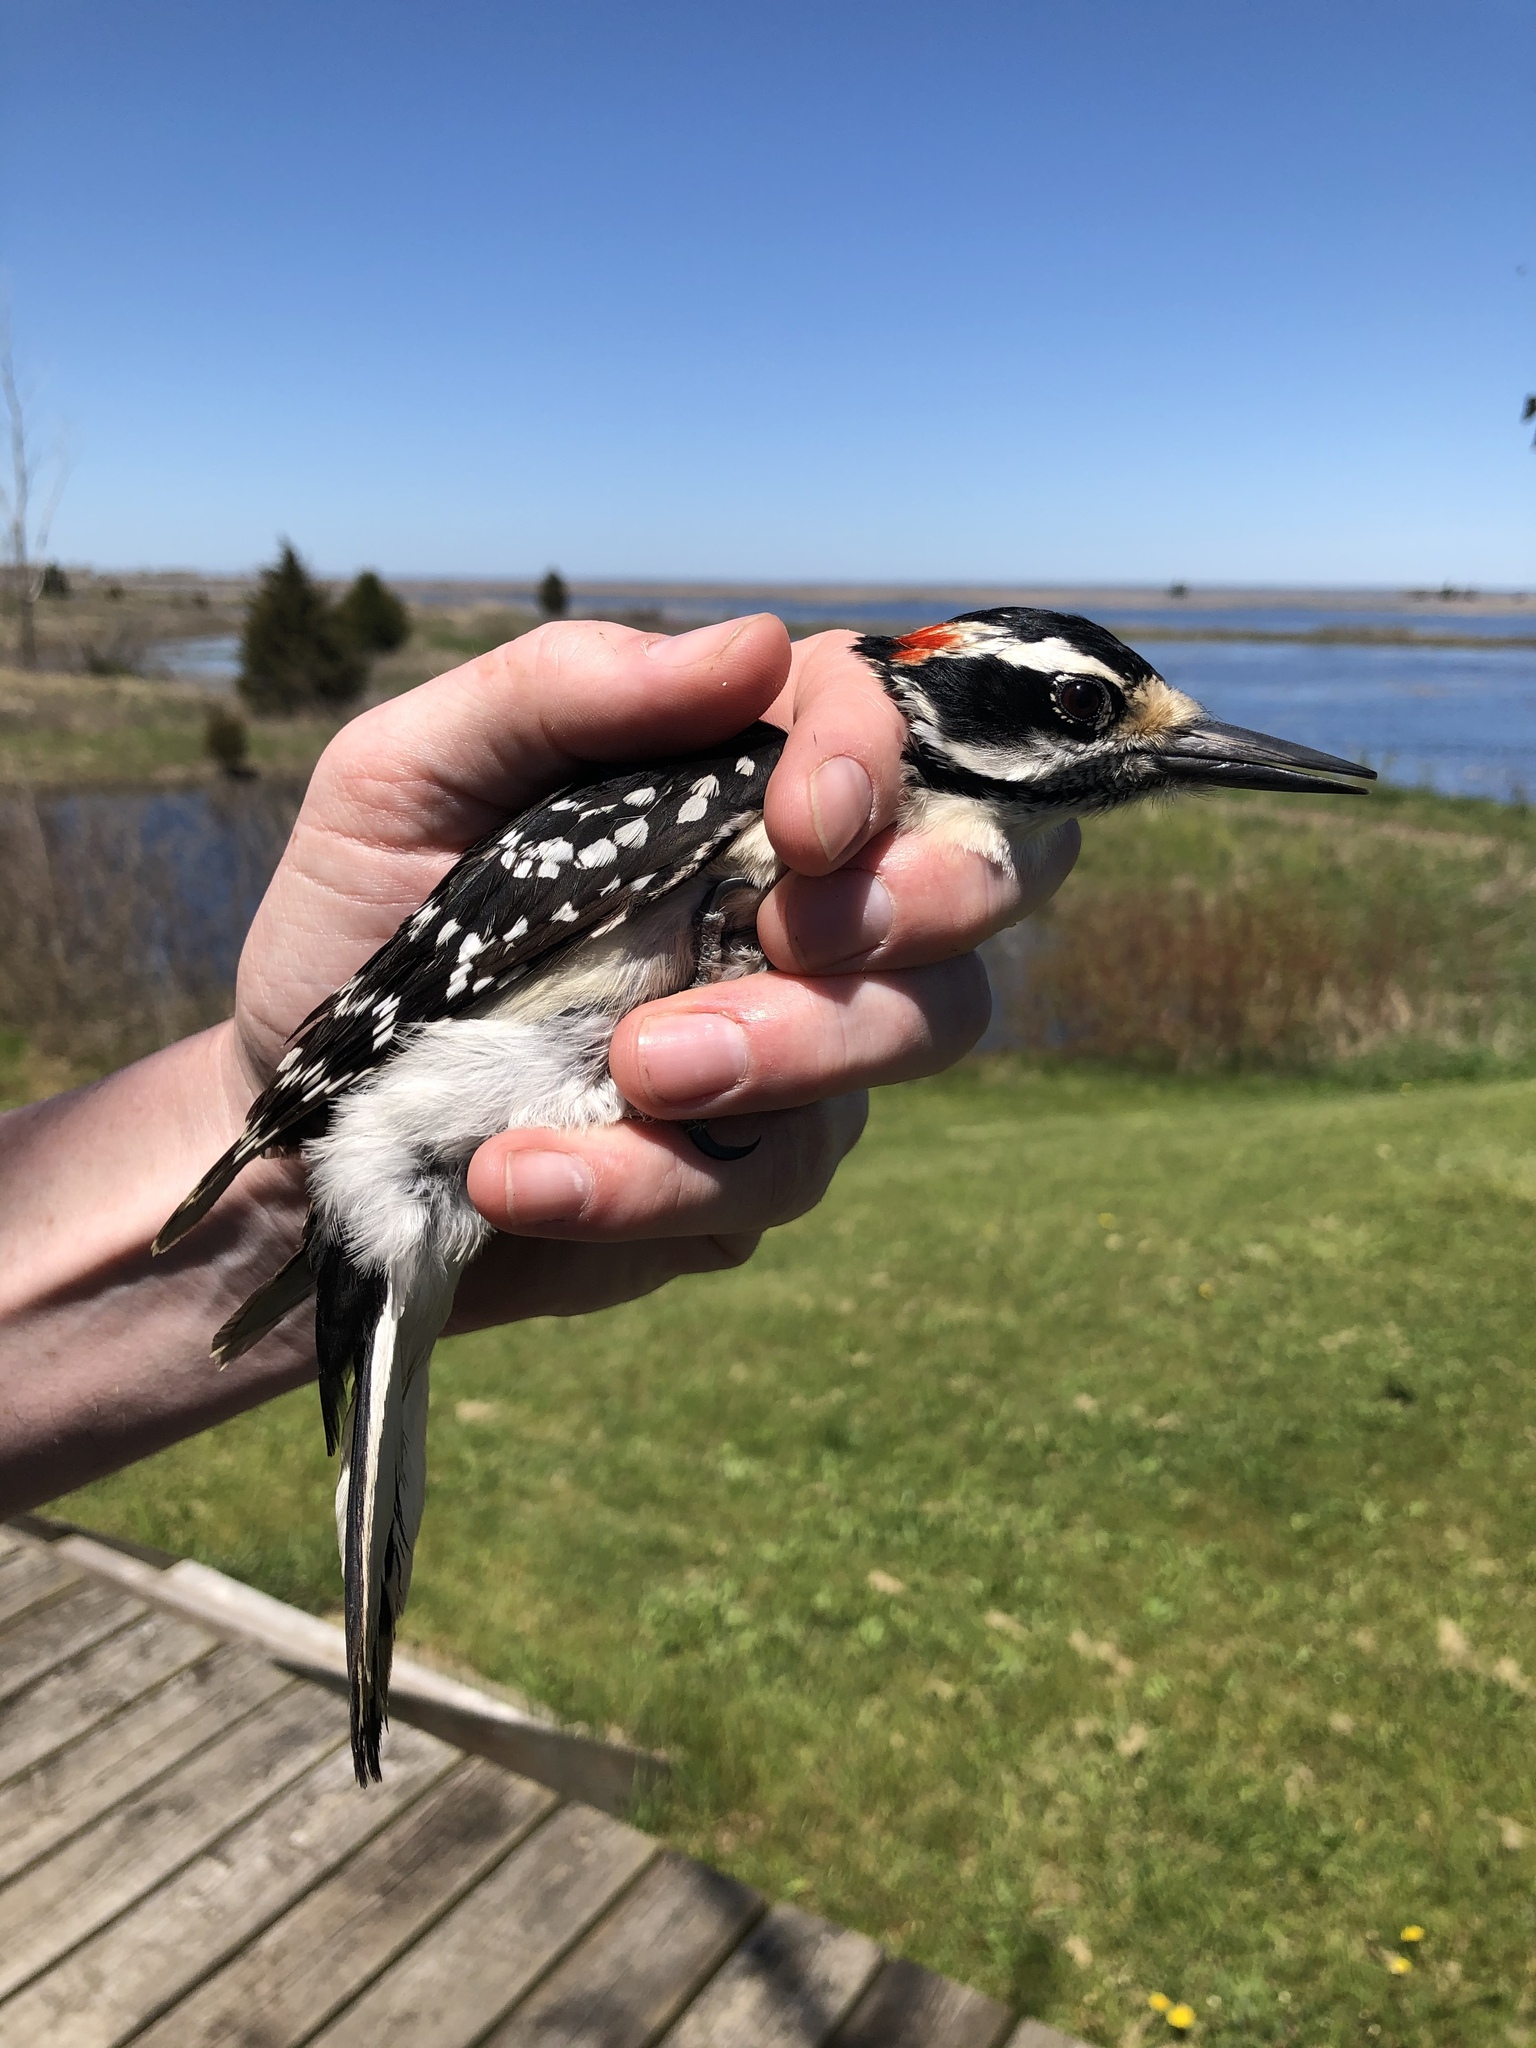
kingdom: Animalia
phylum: Chordata
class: Aves
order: Piciformes
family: Picidae
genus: Leuconotopicus
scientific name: Leuconotopicus villosus
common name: Hairy woodpecker
